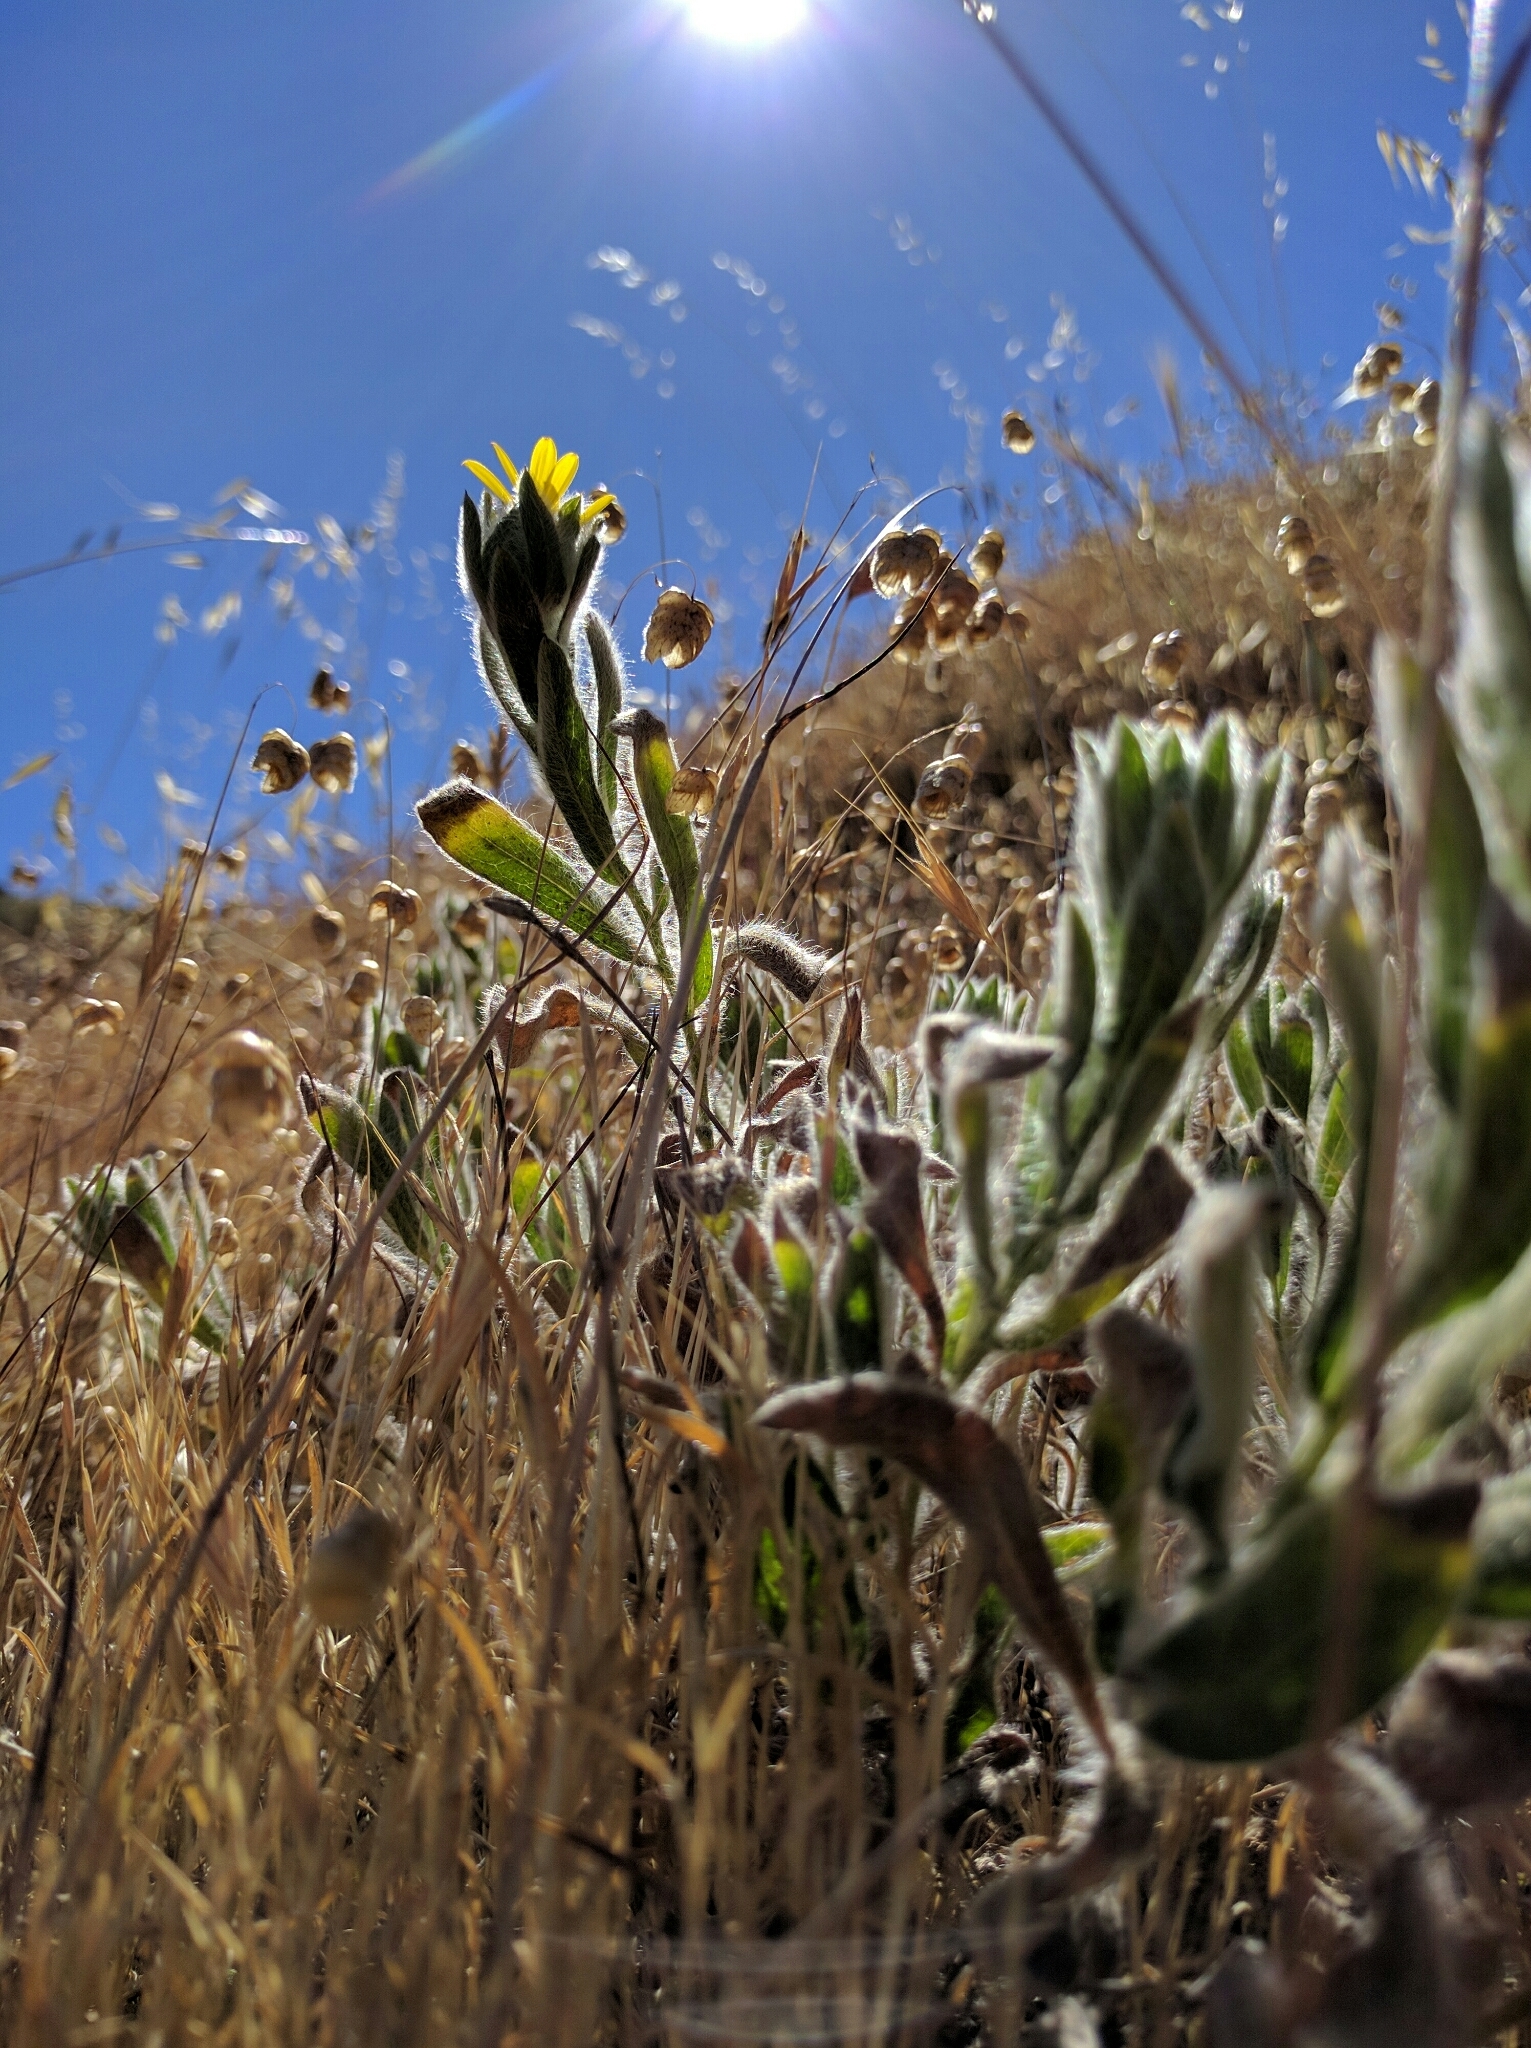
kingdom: Plantae
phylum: Tracheophyta
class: Magnoliopsida
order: Asterales
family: Asteraceae
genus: Heterotheca
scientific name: Heterotheca sessiliflora
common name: Sessile-flower golden-aster
